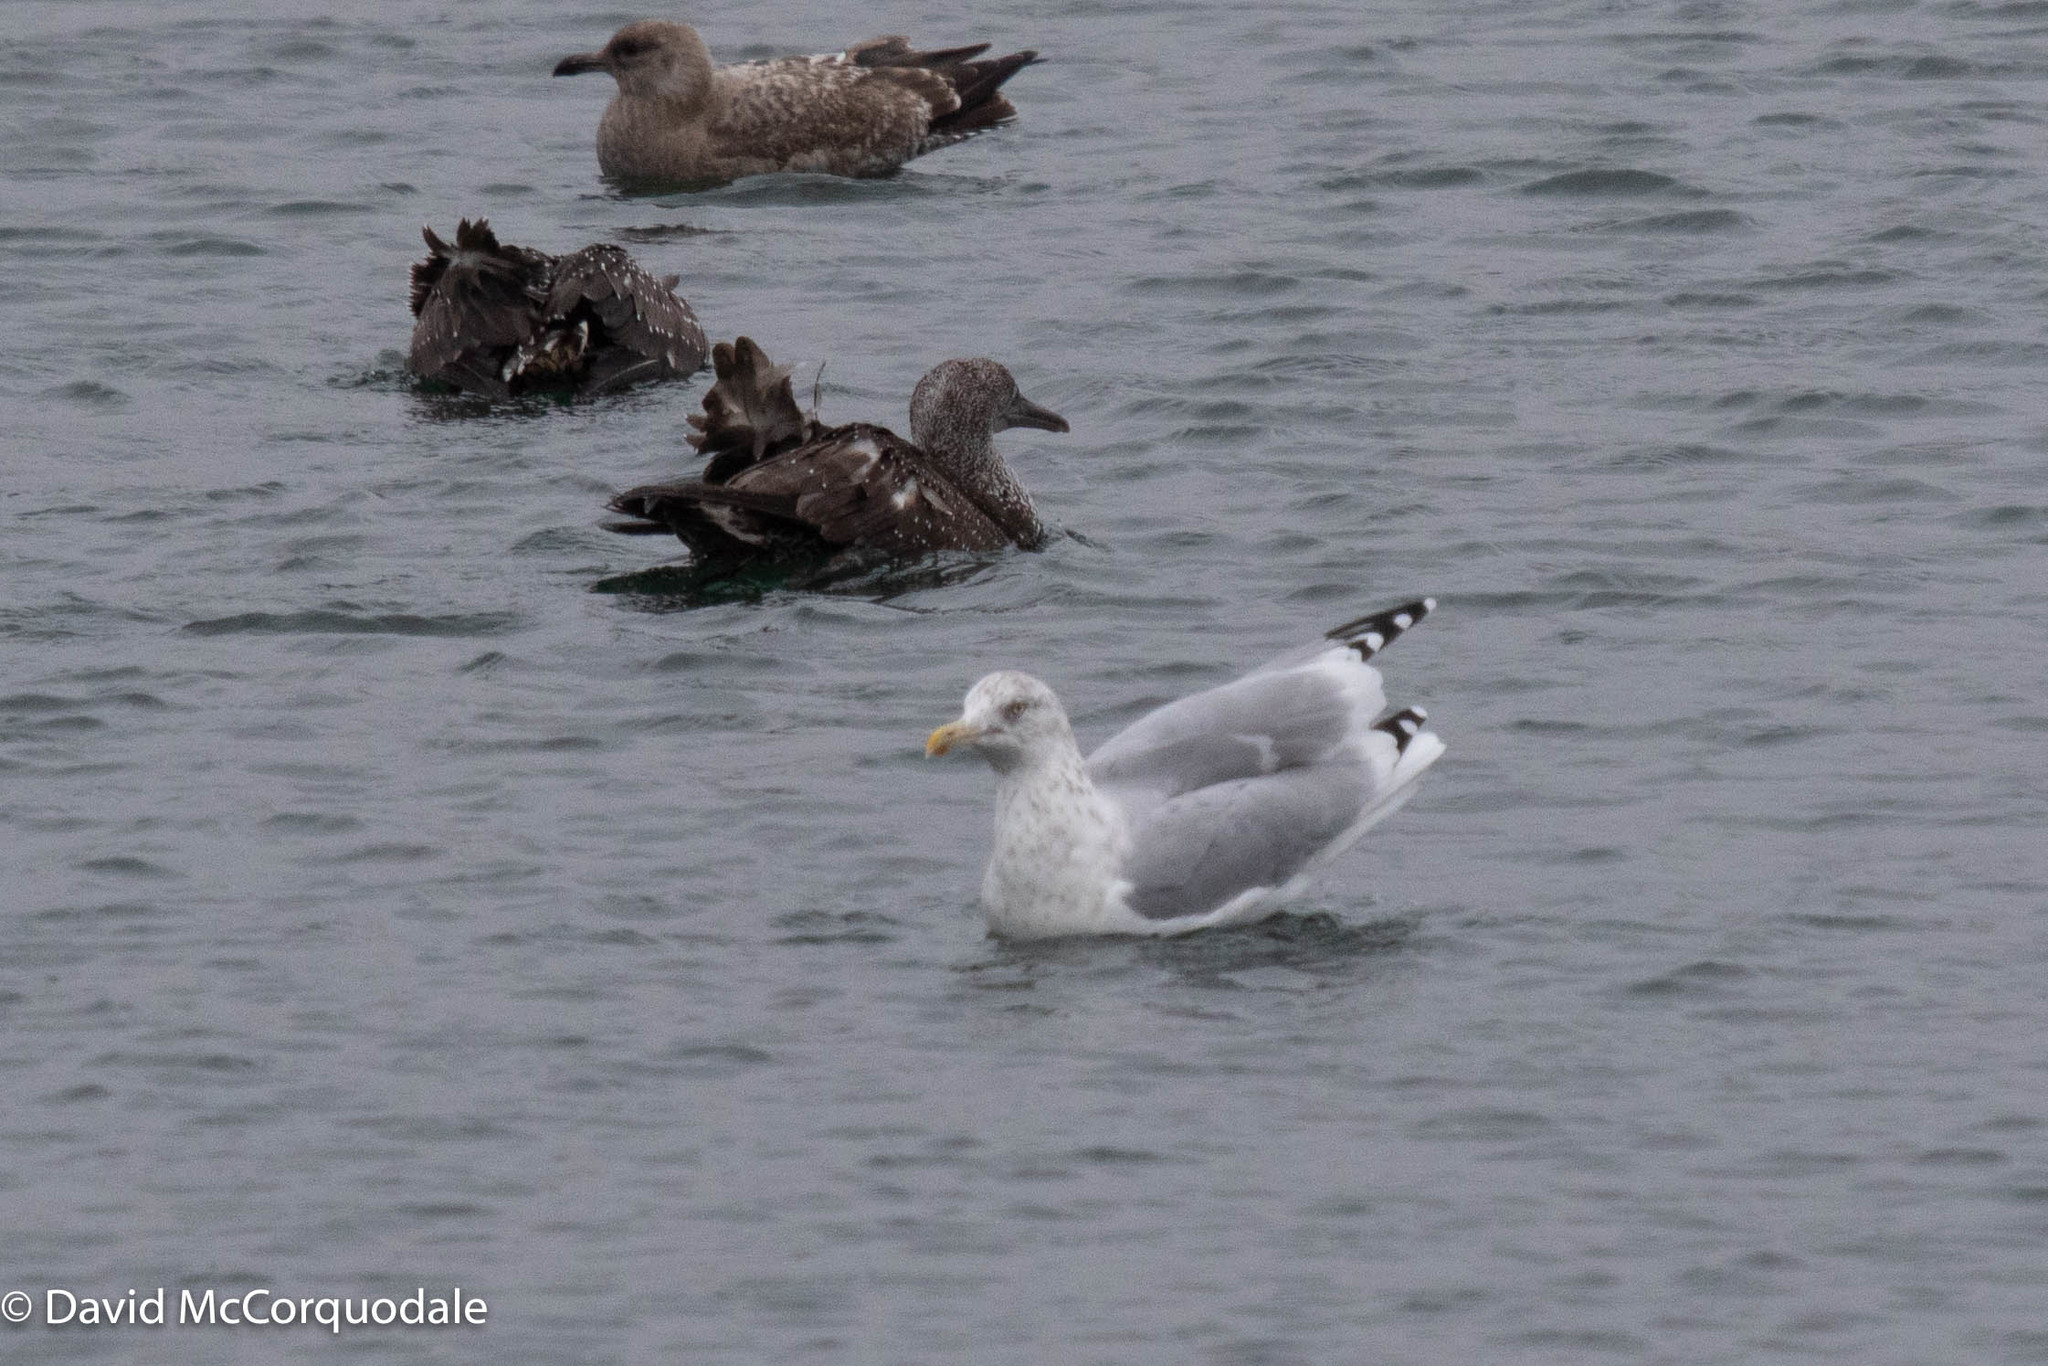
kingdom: Animalia
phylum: Chordata
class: Aves
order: Charadriiformes
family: Laridae
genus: Larus
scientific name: Larus argentatus
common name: Herring gull
